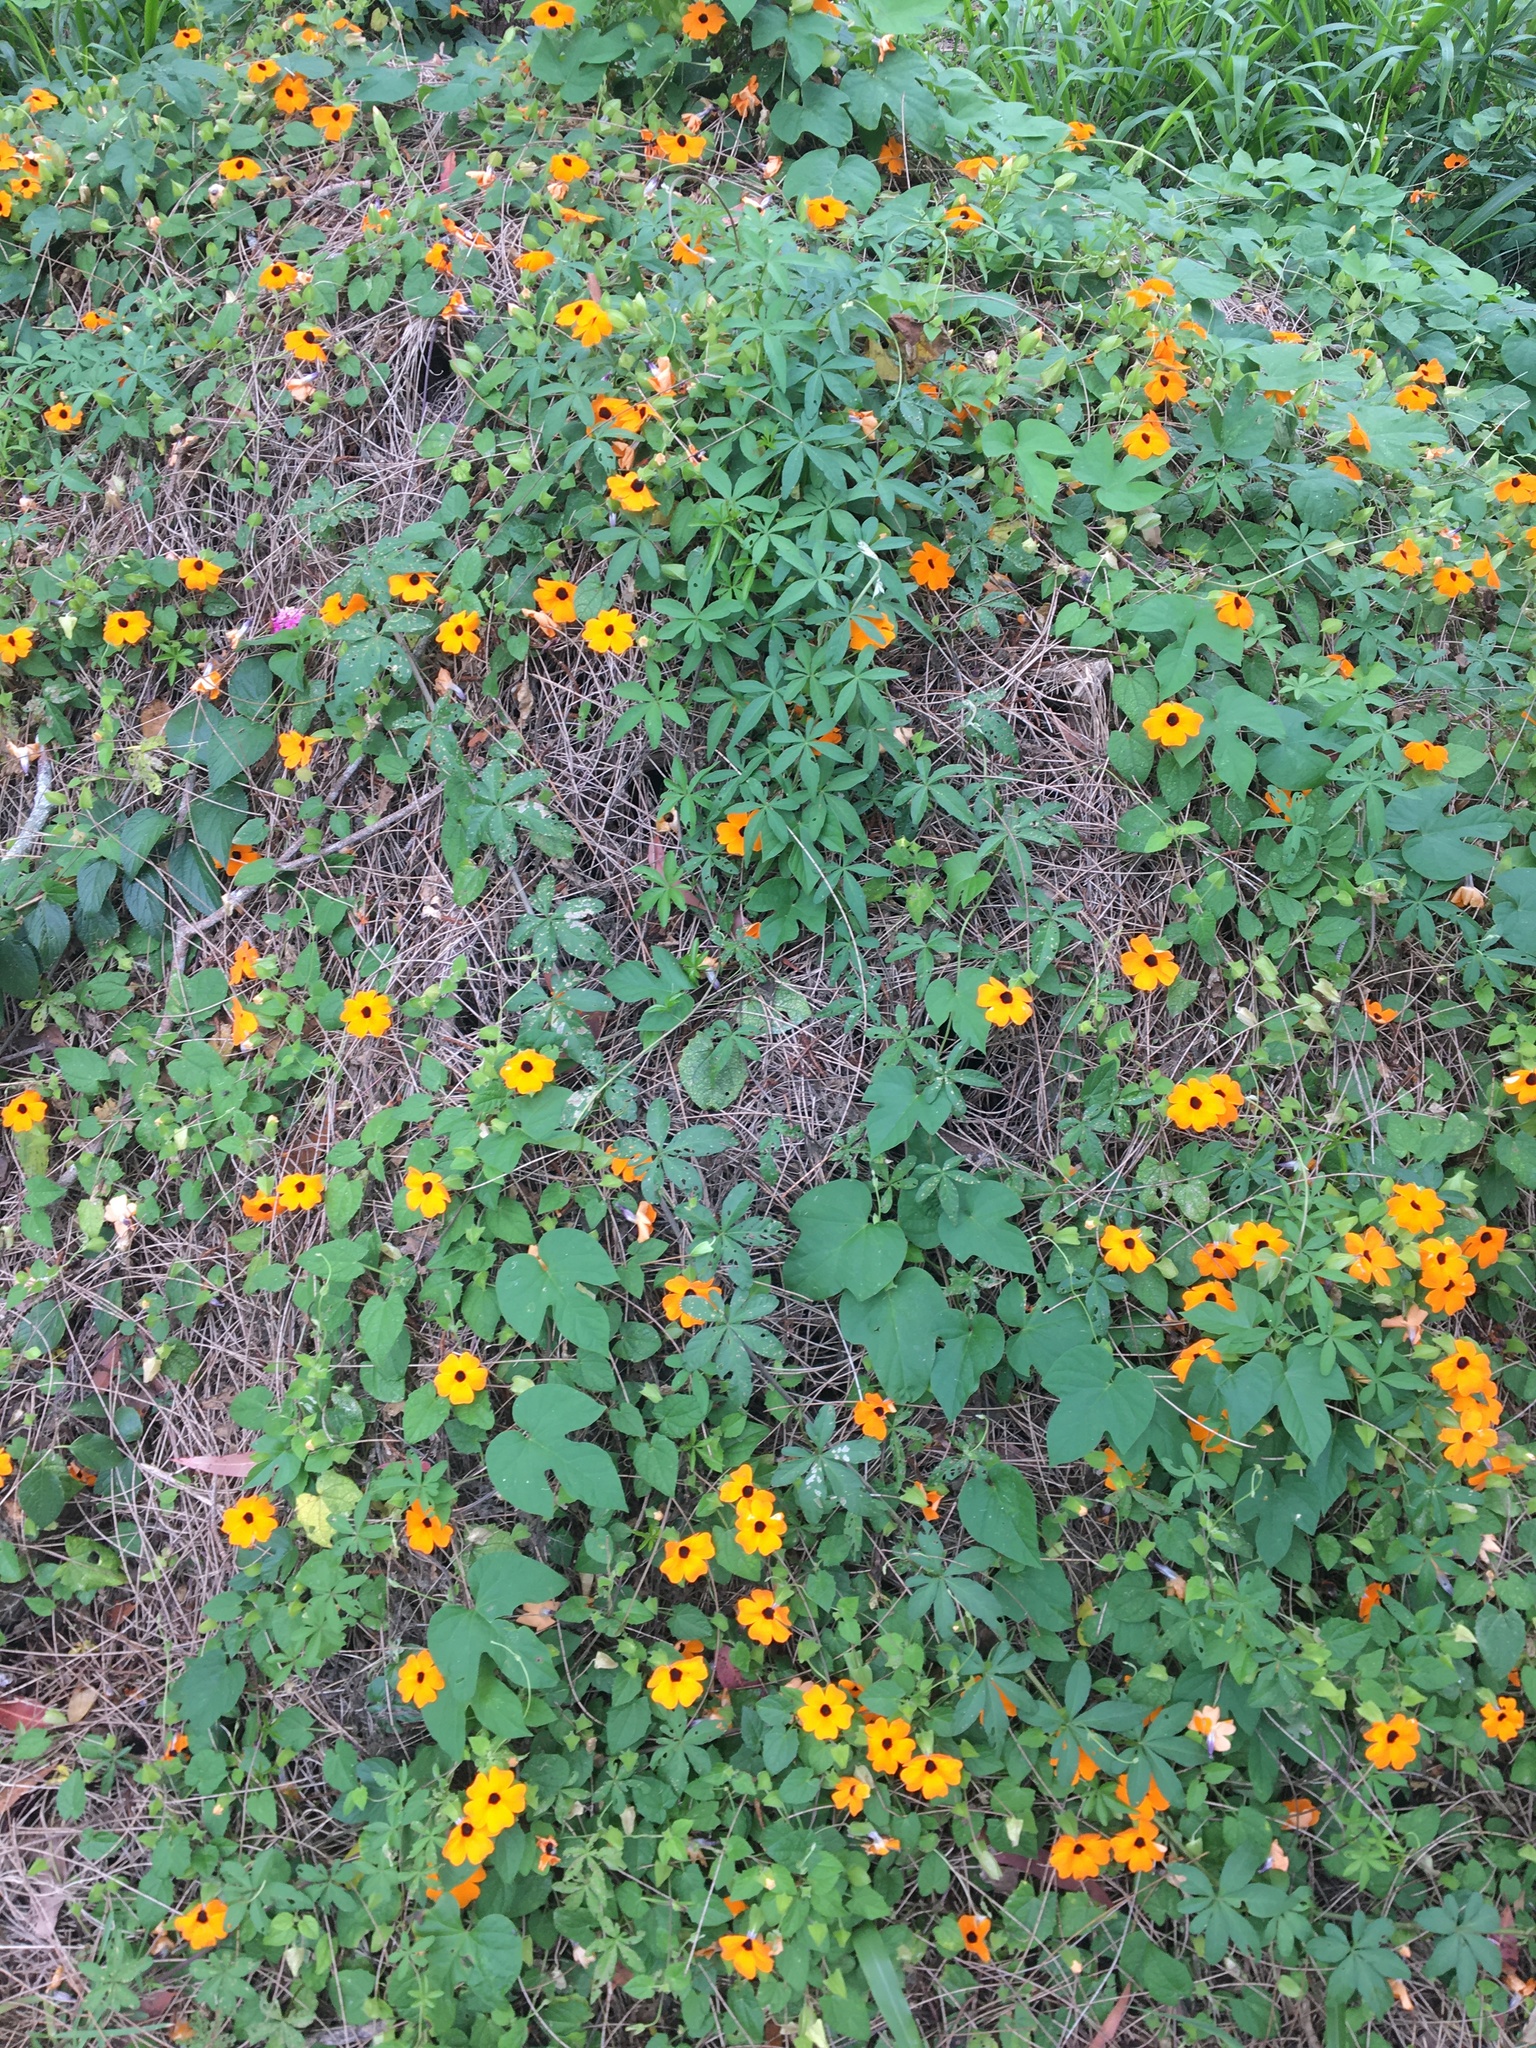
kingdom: Plantae
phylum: Tracheophyta
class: Magnoliopsida
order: Lamiales
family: Acanthaceae
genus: Thunbergia
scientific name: Thunbergia alata
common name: Blackeyed susan vine
